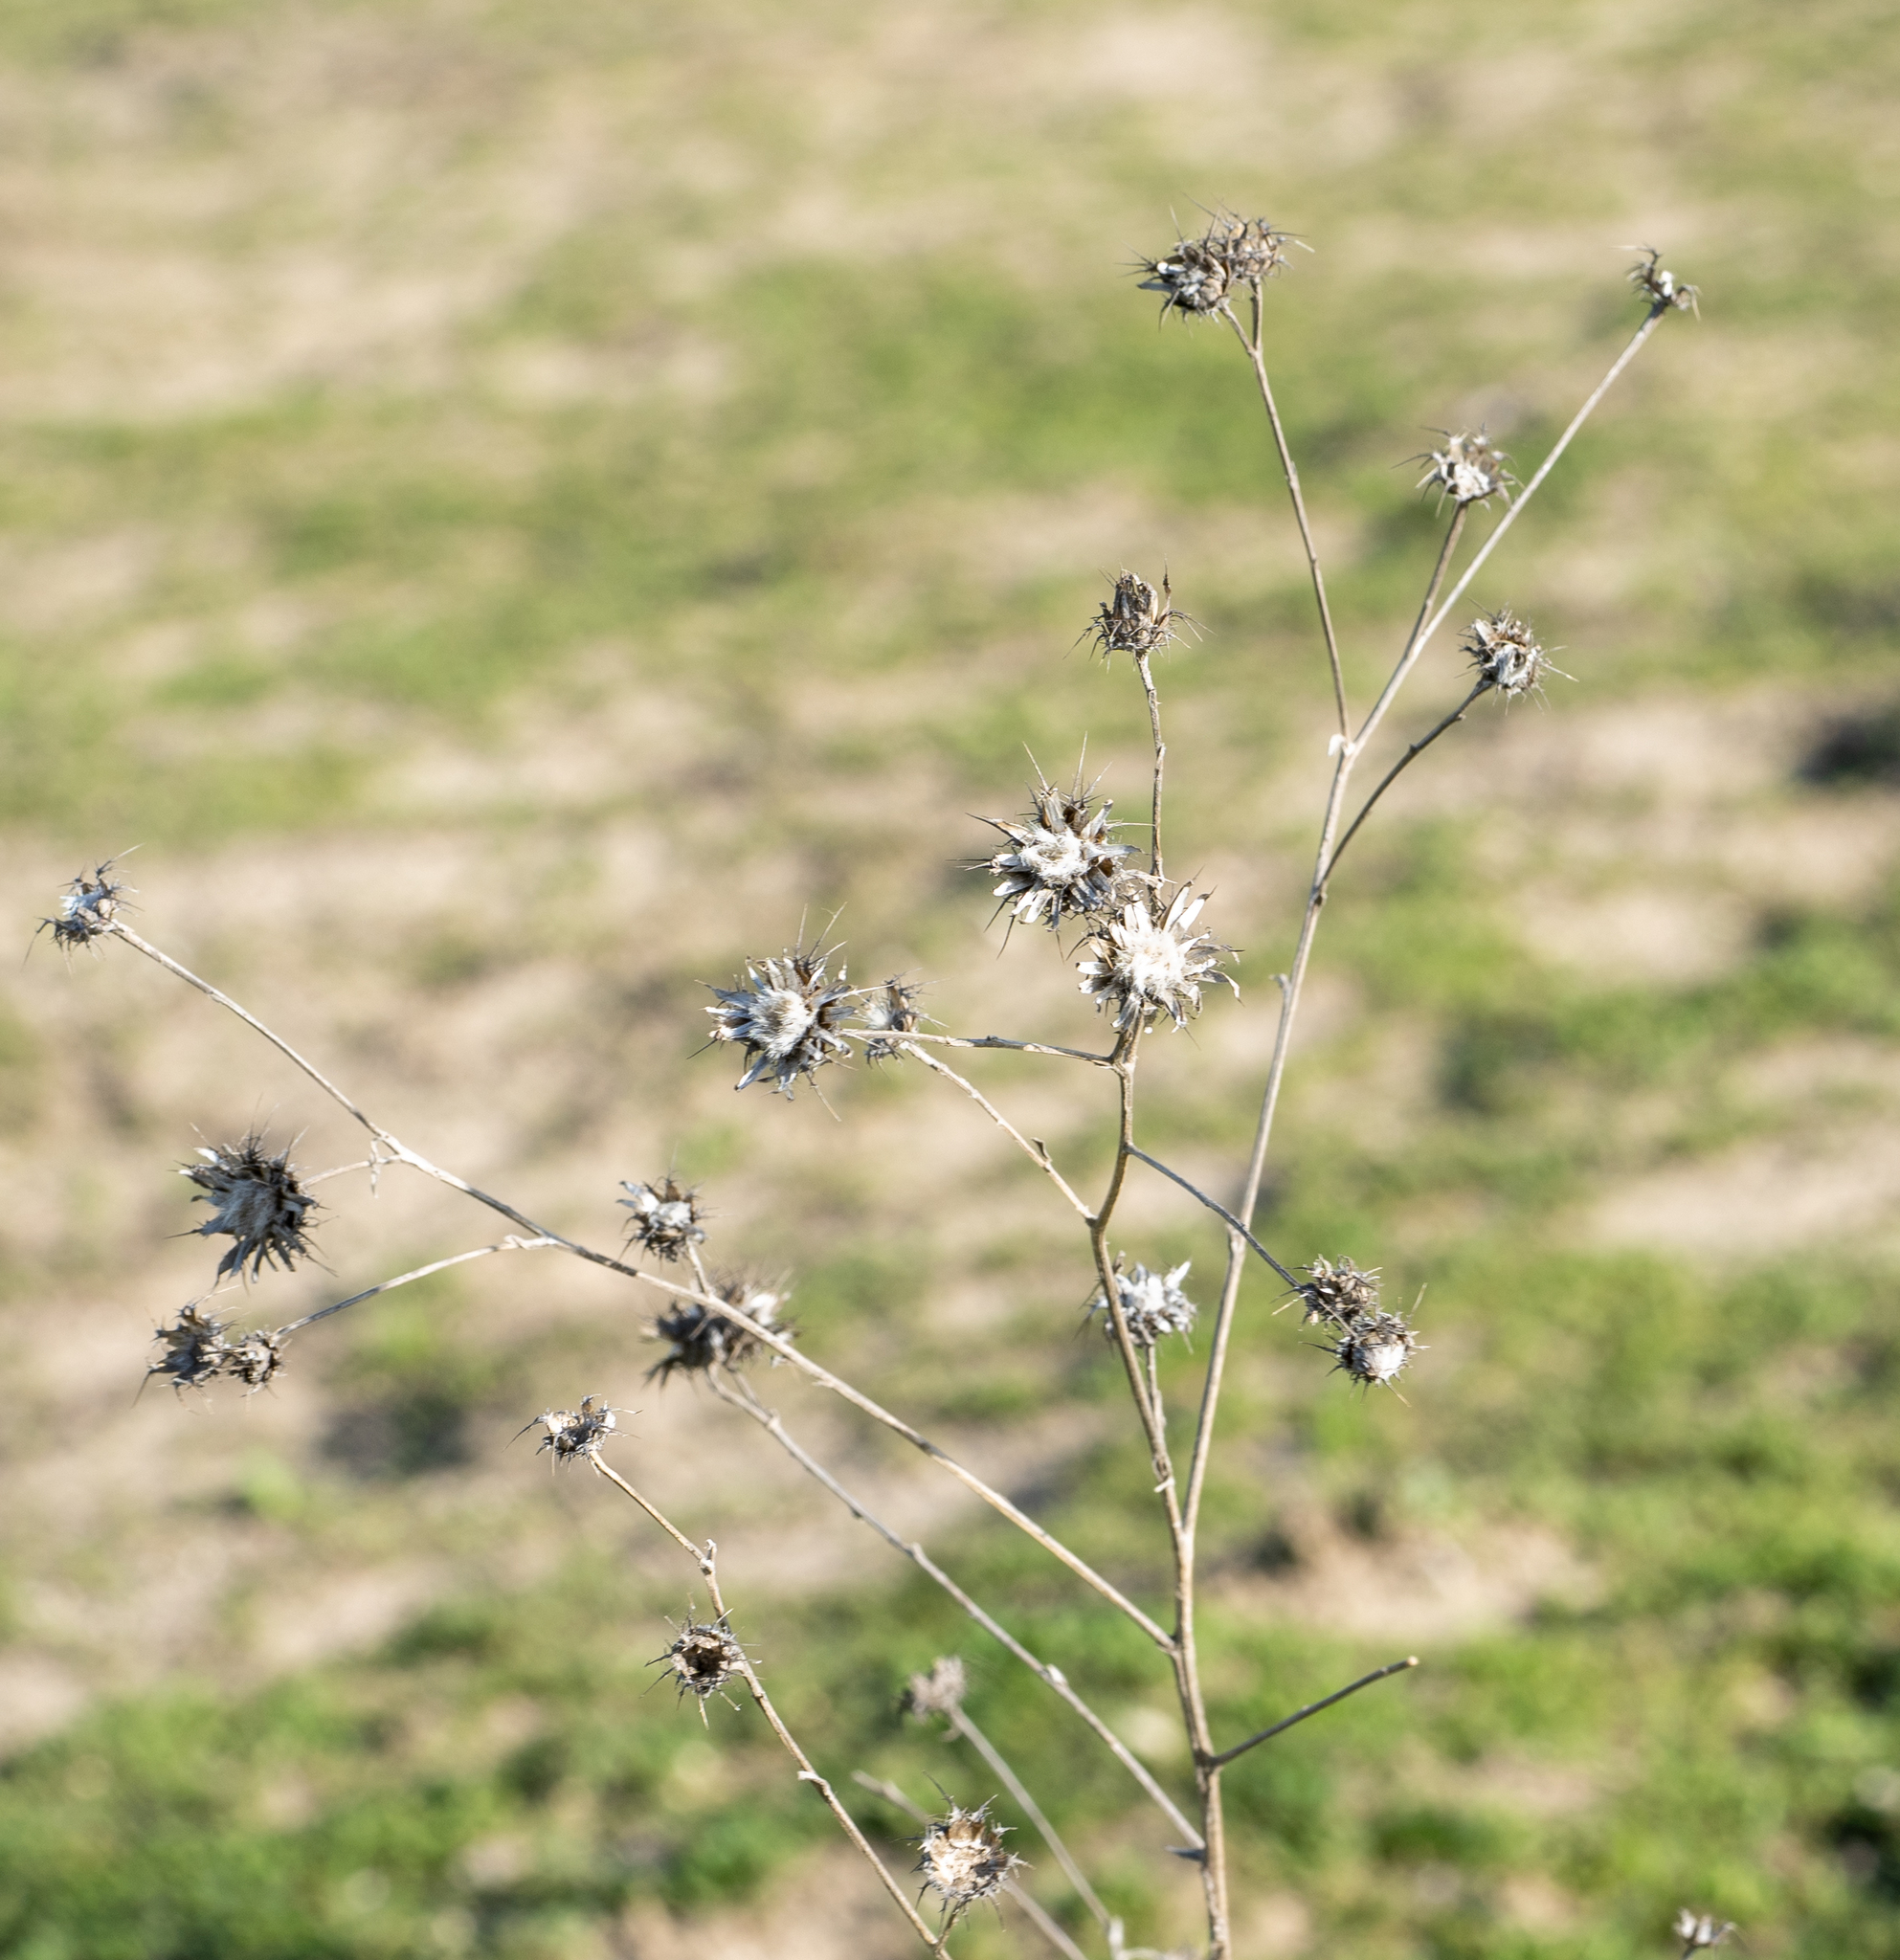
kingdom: Plantae
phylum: Tracheophyta
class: Magnoliopsida
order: Asterales
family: Asteraceae
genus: Centaurea
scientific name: Centaurea melitensis
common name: Maltese star-thistle
